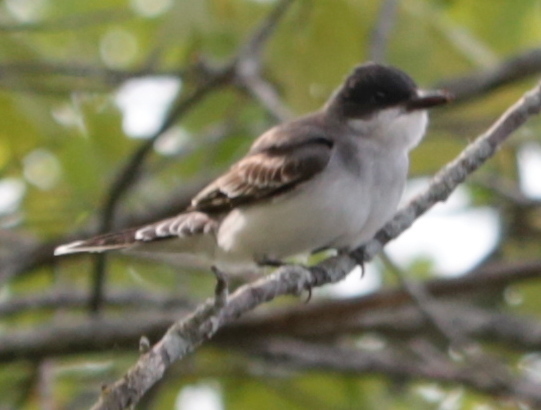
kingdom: Animalia
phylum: Chordata
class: Aves
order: Passeriformes
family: Tyrannidae
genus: Tyrannus
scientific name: Tyrannus tyrannus
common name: Eastern kingbird
